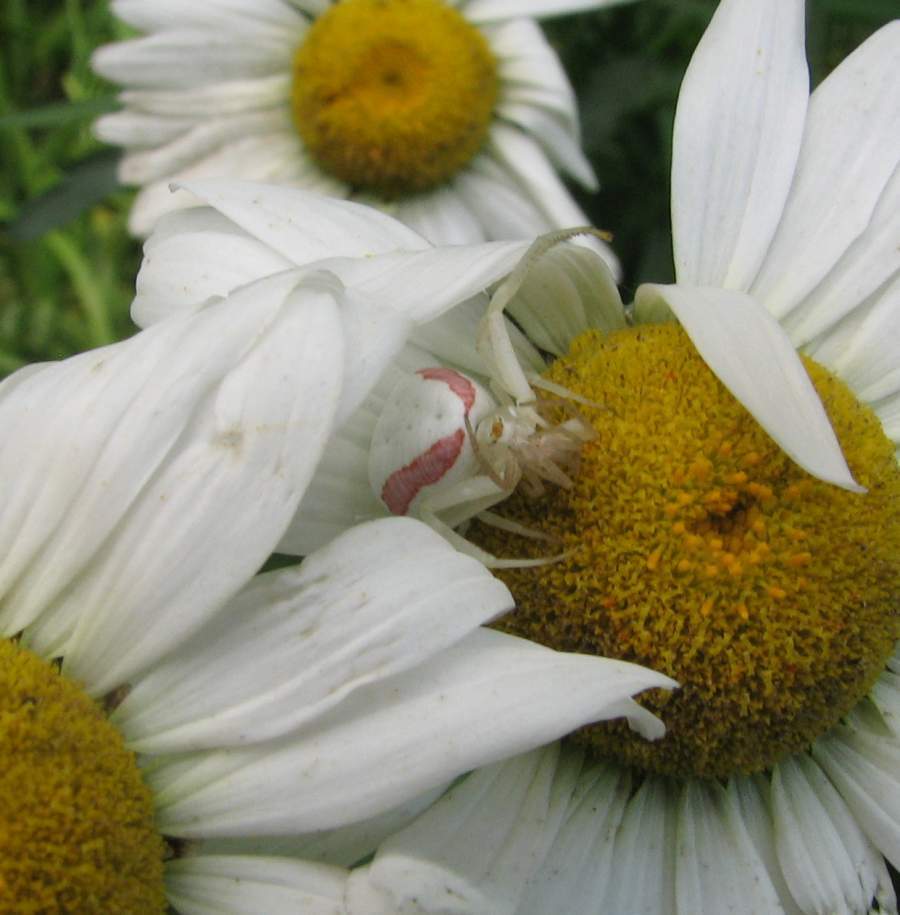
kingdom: Animalia
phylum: Arthropoda
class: Arachnida
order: Araneae
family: Thomisidae
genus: Misumena
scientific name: Misumena vatia
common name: Goldenrod crab spider
